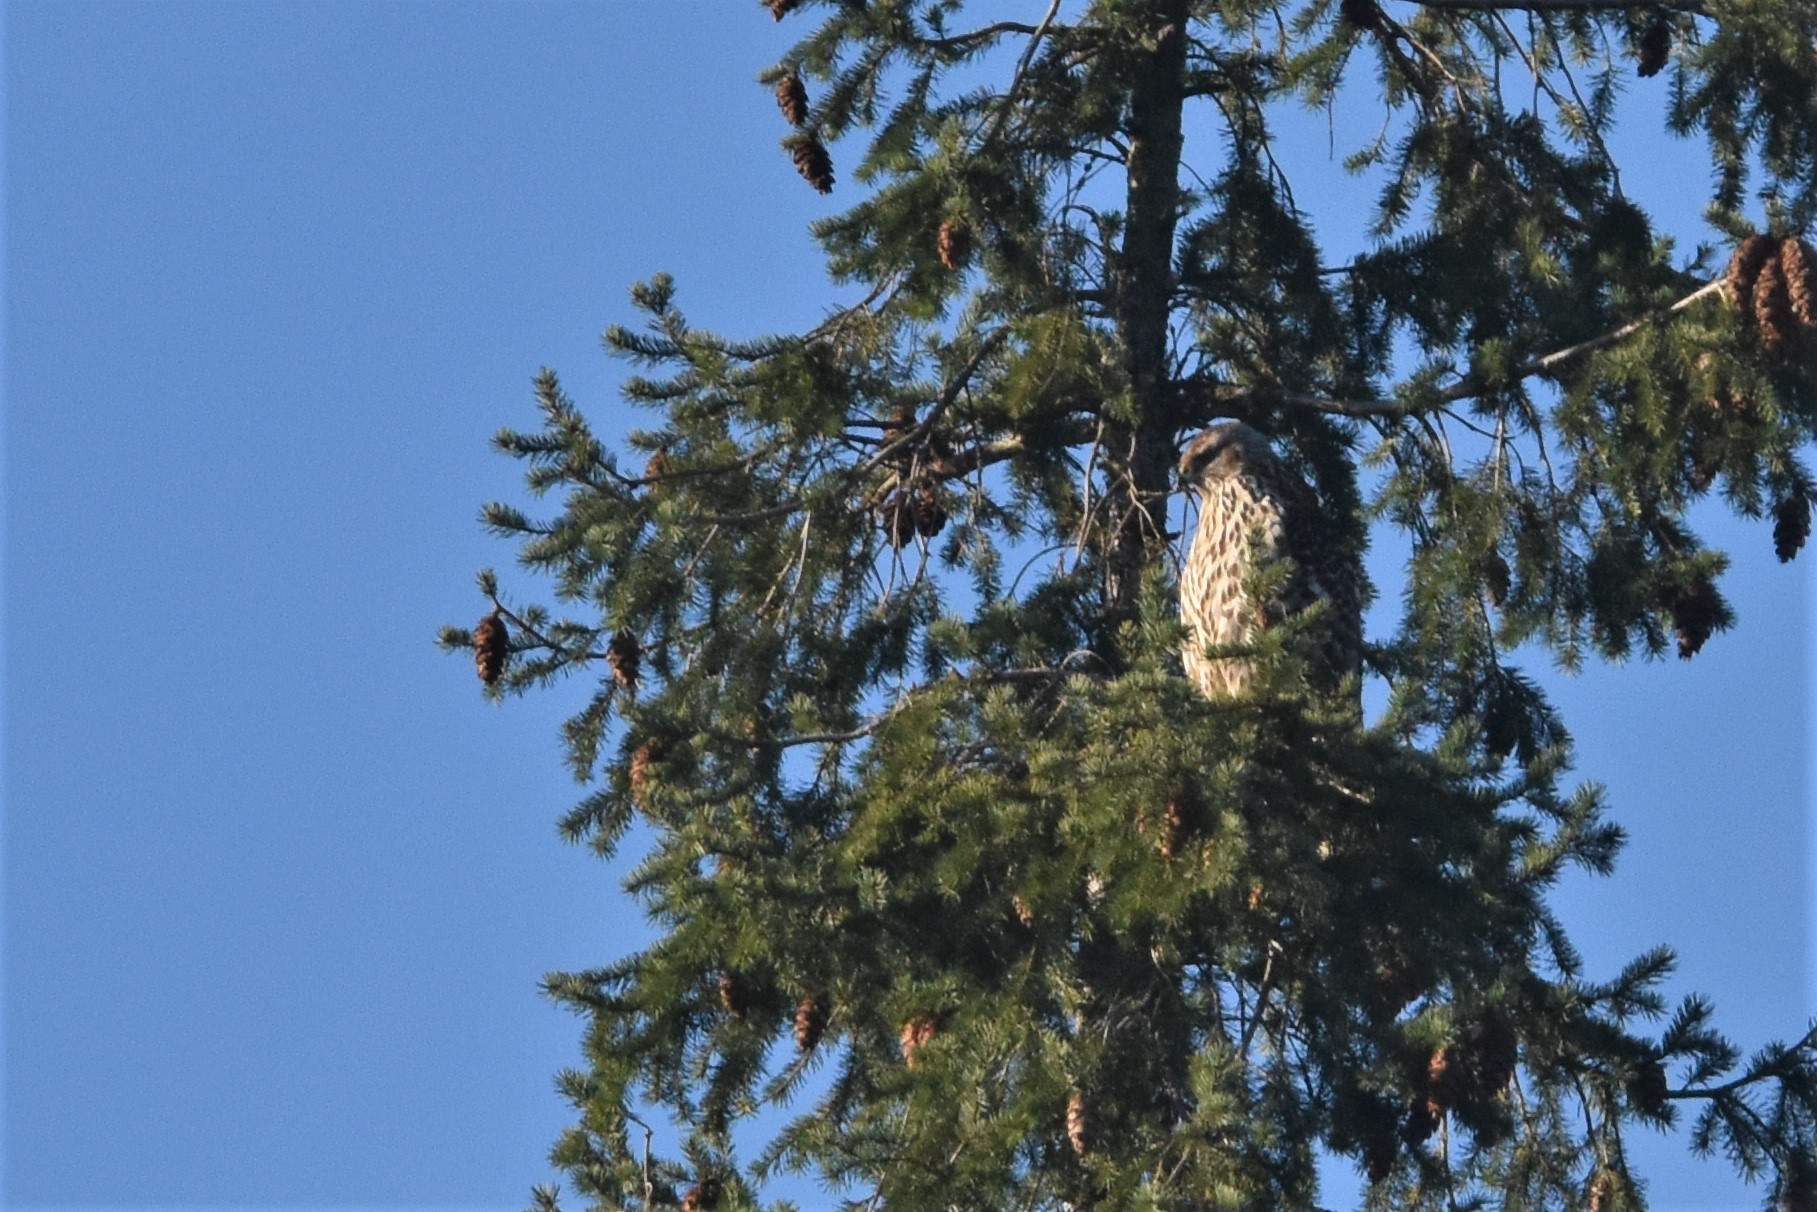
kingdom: Animalia
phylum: Chordata
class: Aves
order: Accipitriformes
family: Accipitridae
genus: Accipiter
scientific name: Accipiter gentilis
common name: Northern goshawk
